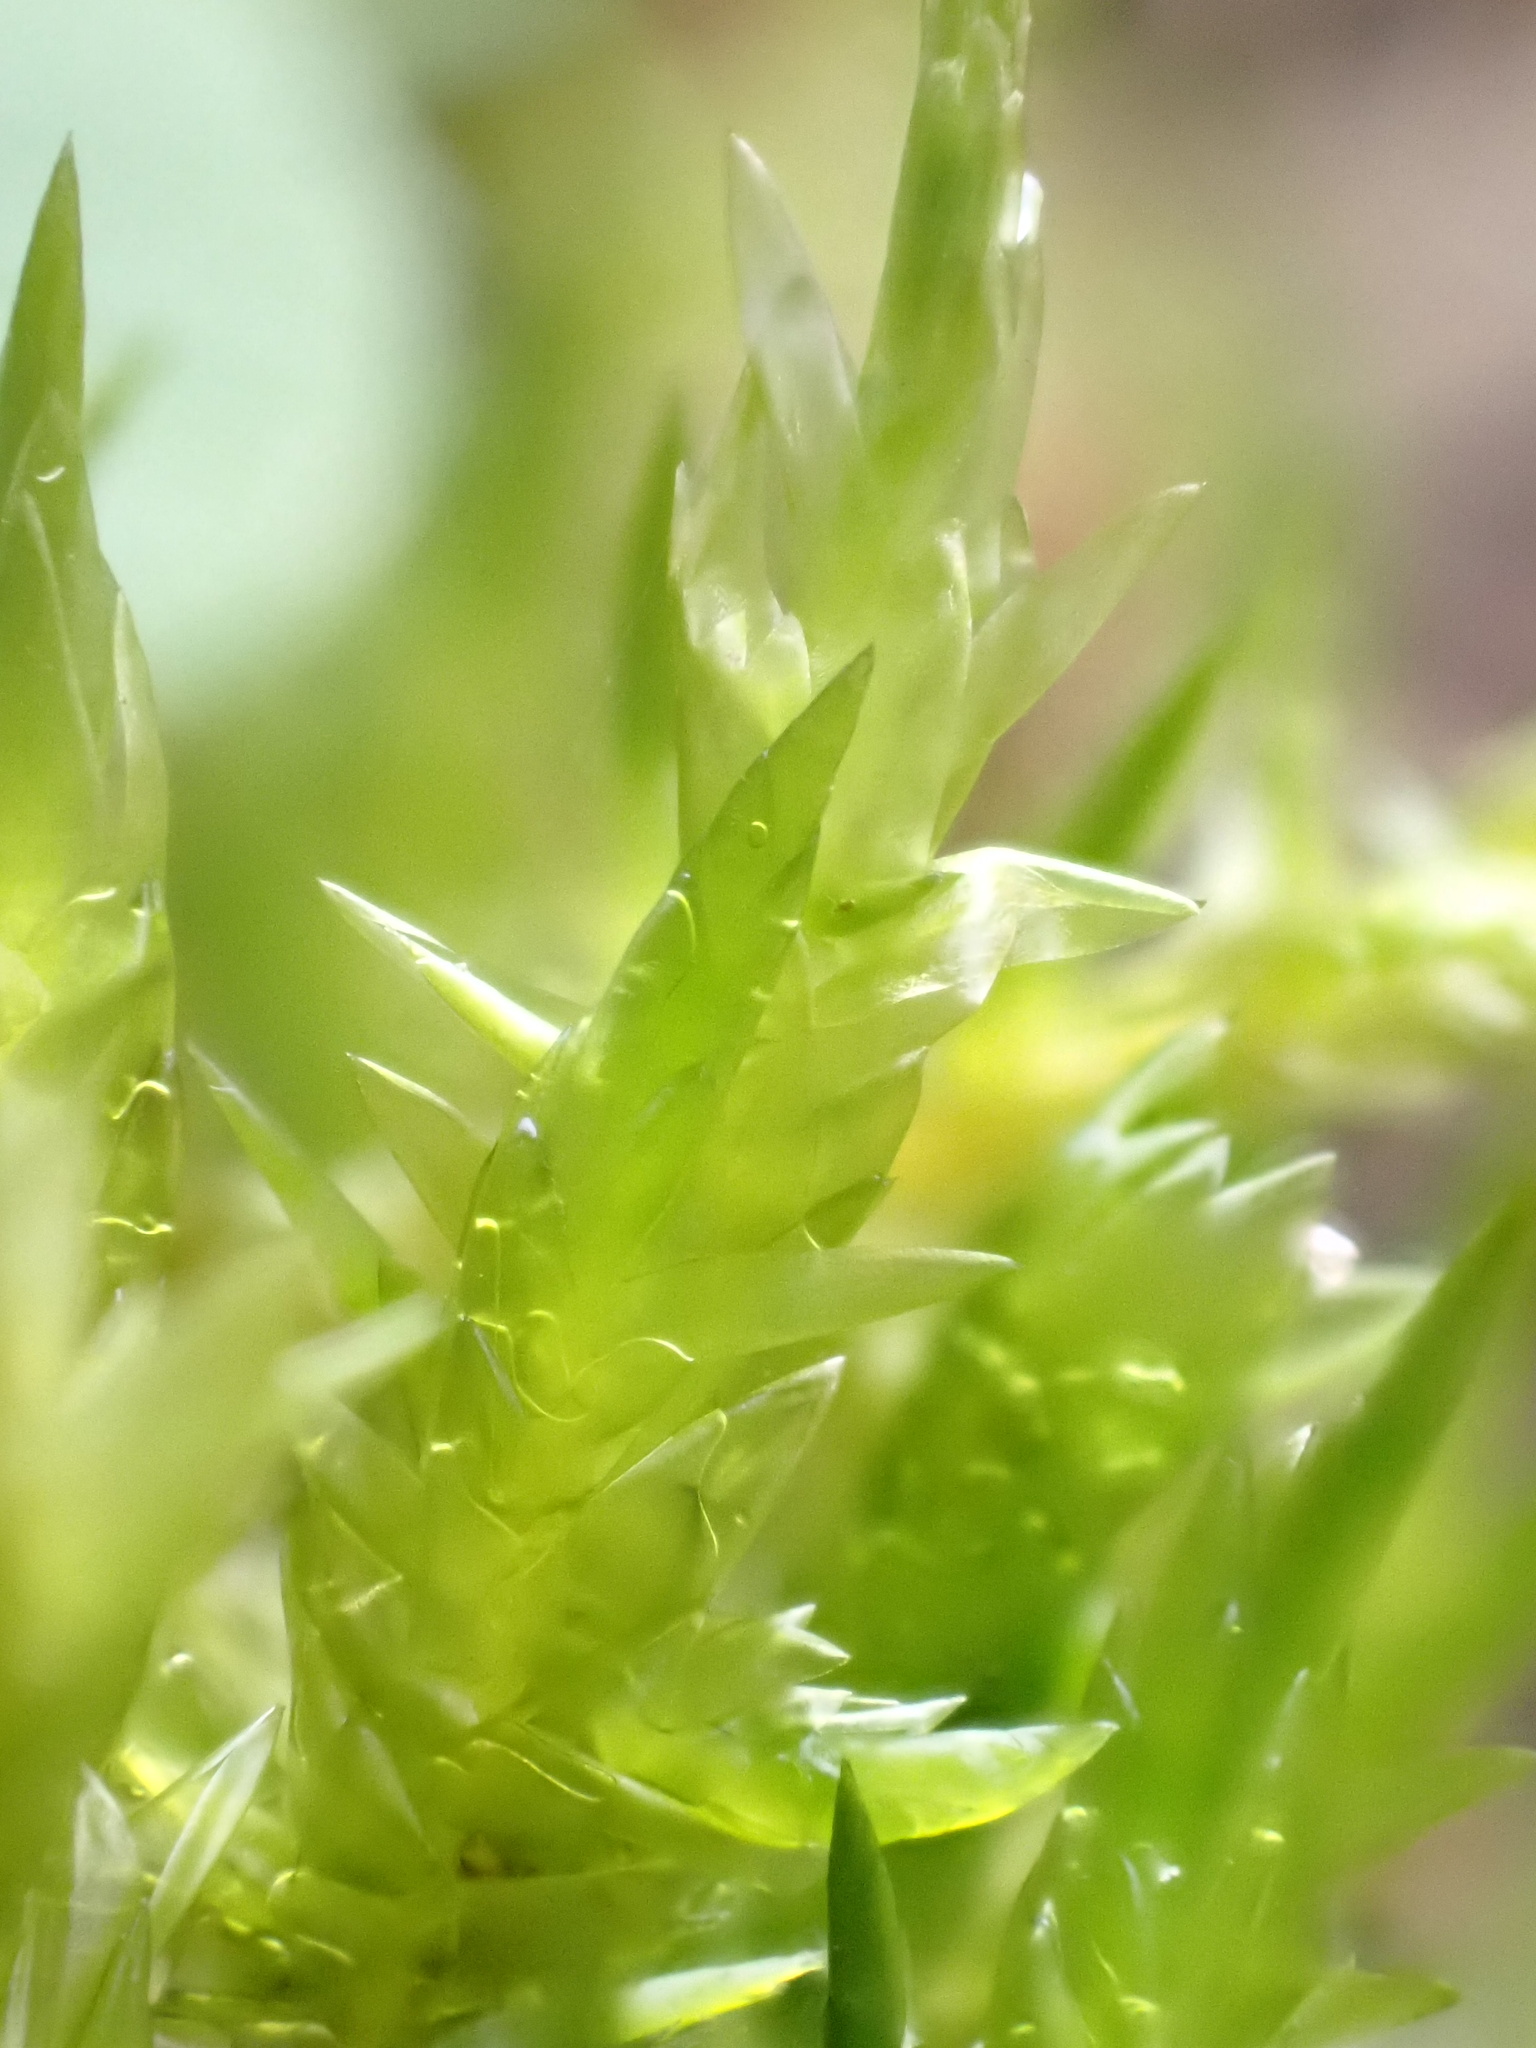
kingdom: Plantae
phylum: Bryophyta
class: Bryopsida
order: Hypnales
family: Pylaisiaceae
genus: Calliergonella
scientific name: Calliergonella cuspidata
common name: Common large wetland moss
